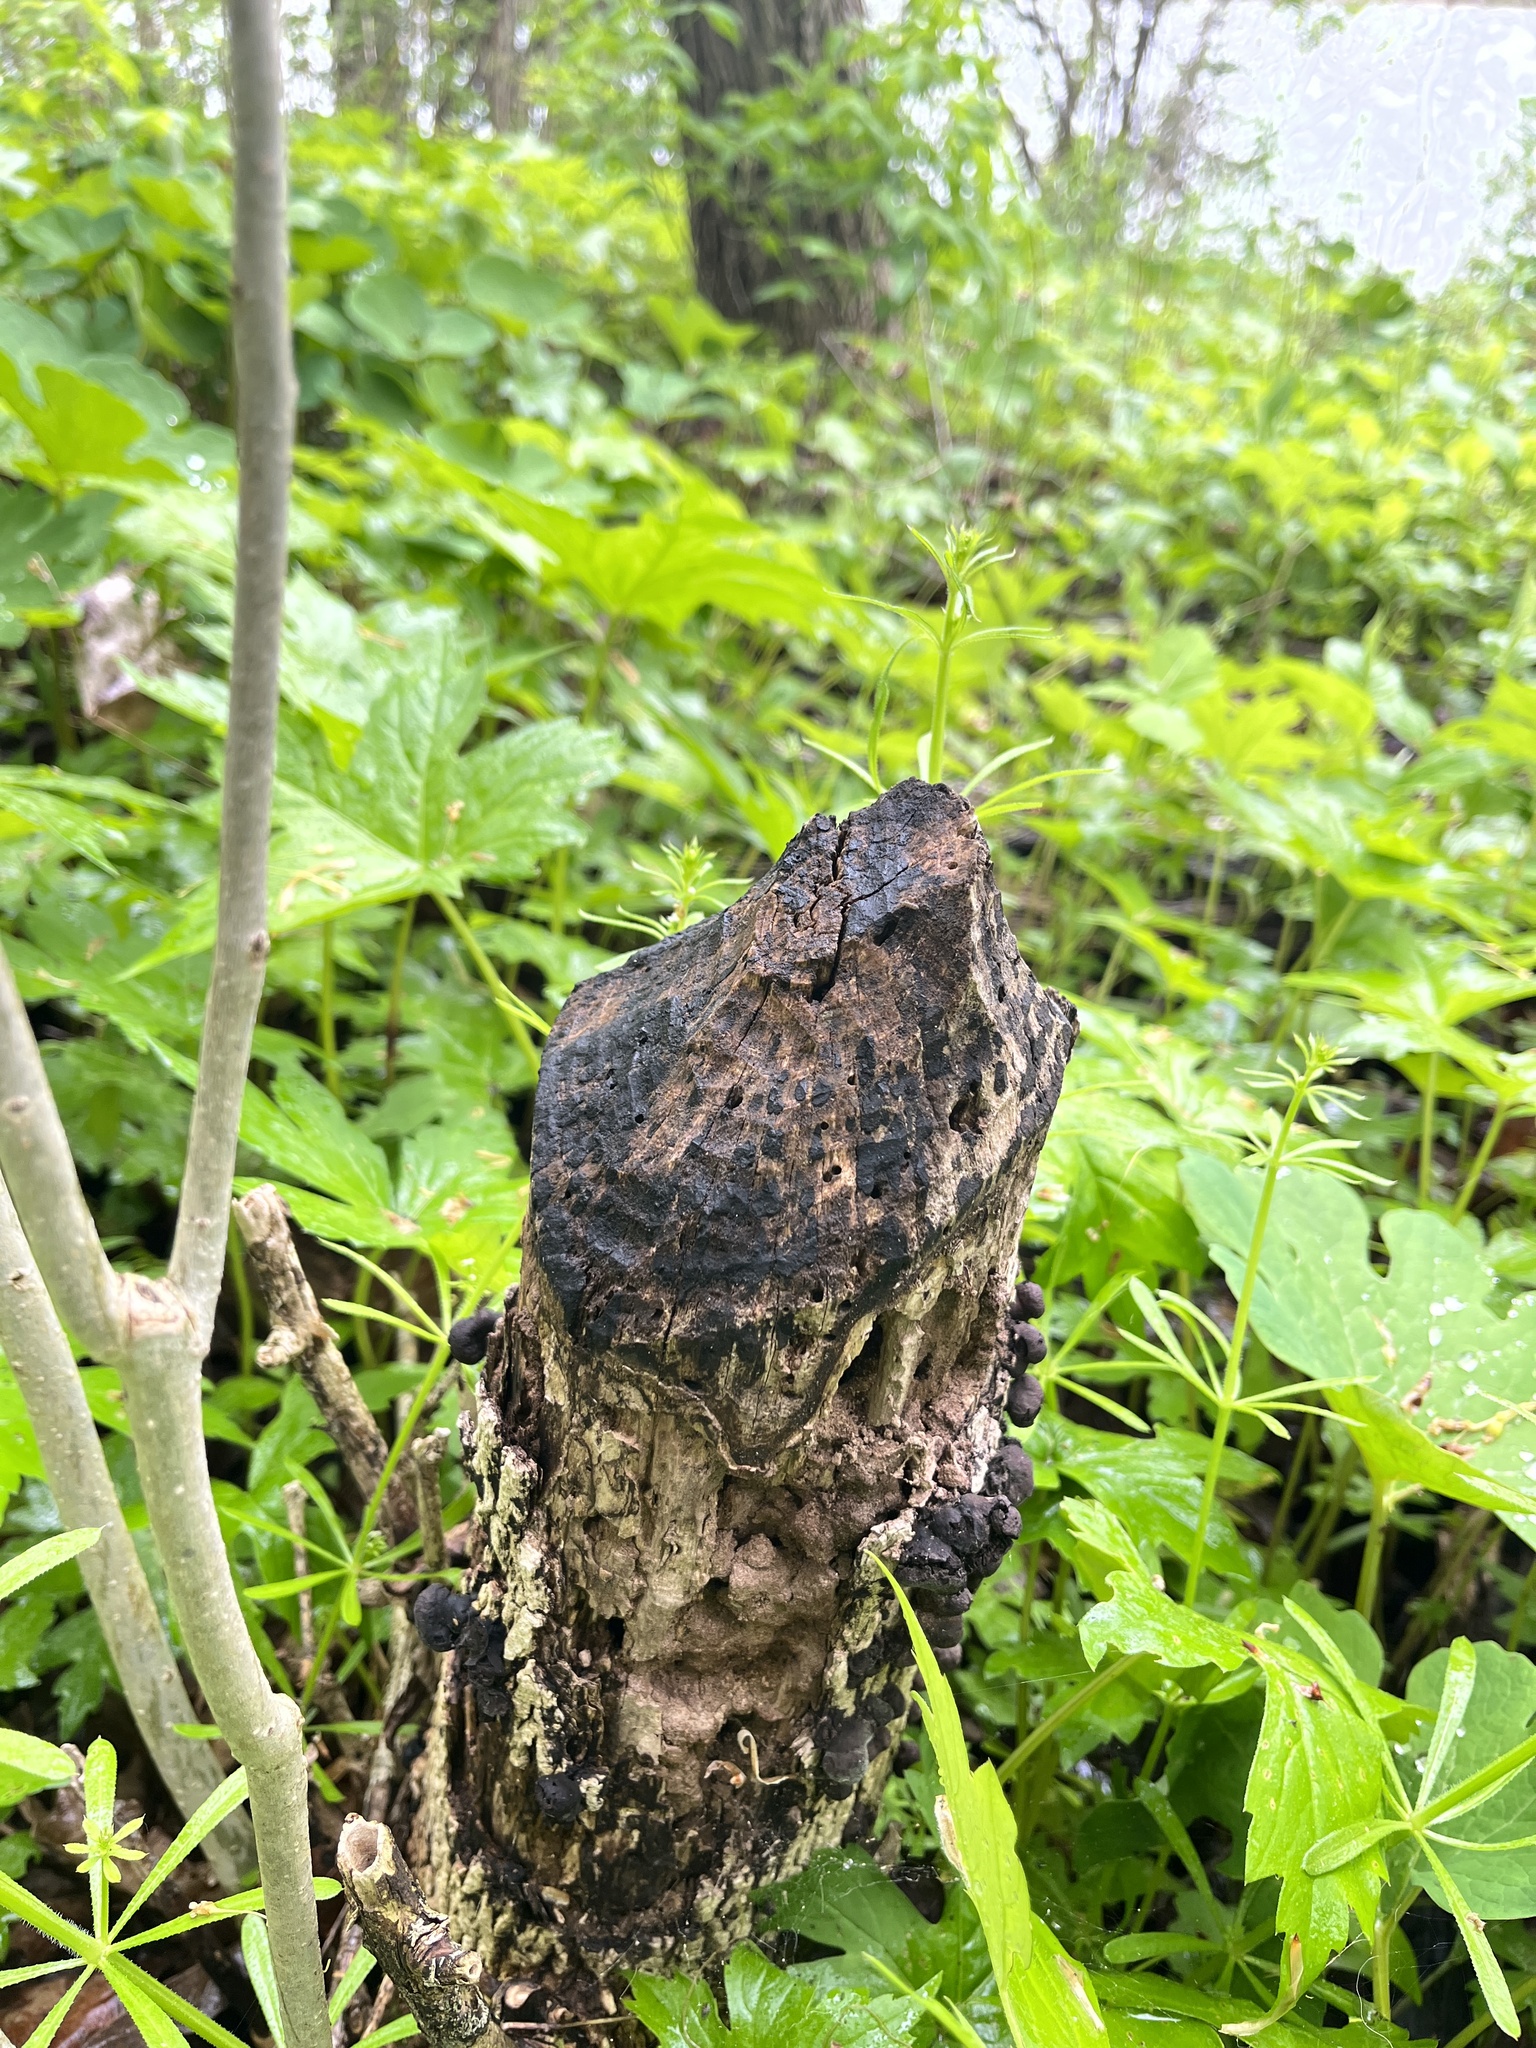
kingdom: Animalia
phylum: Chordata
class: Mammalia
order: Rodentia
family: Castoridae
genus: Castor
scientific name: Castor canadensis
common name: American beaver
